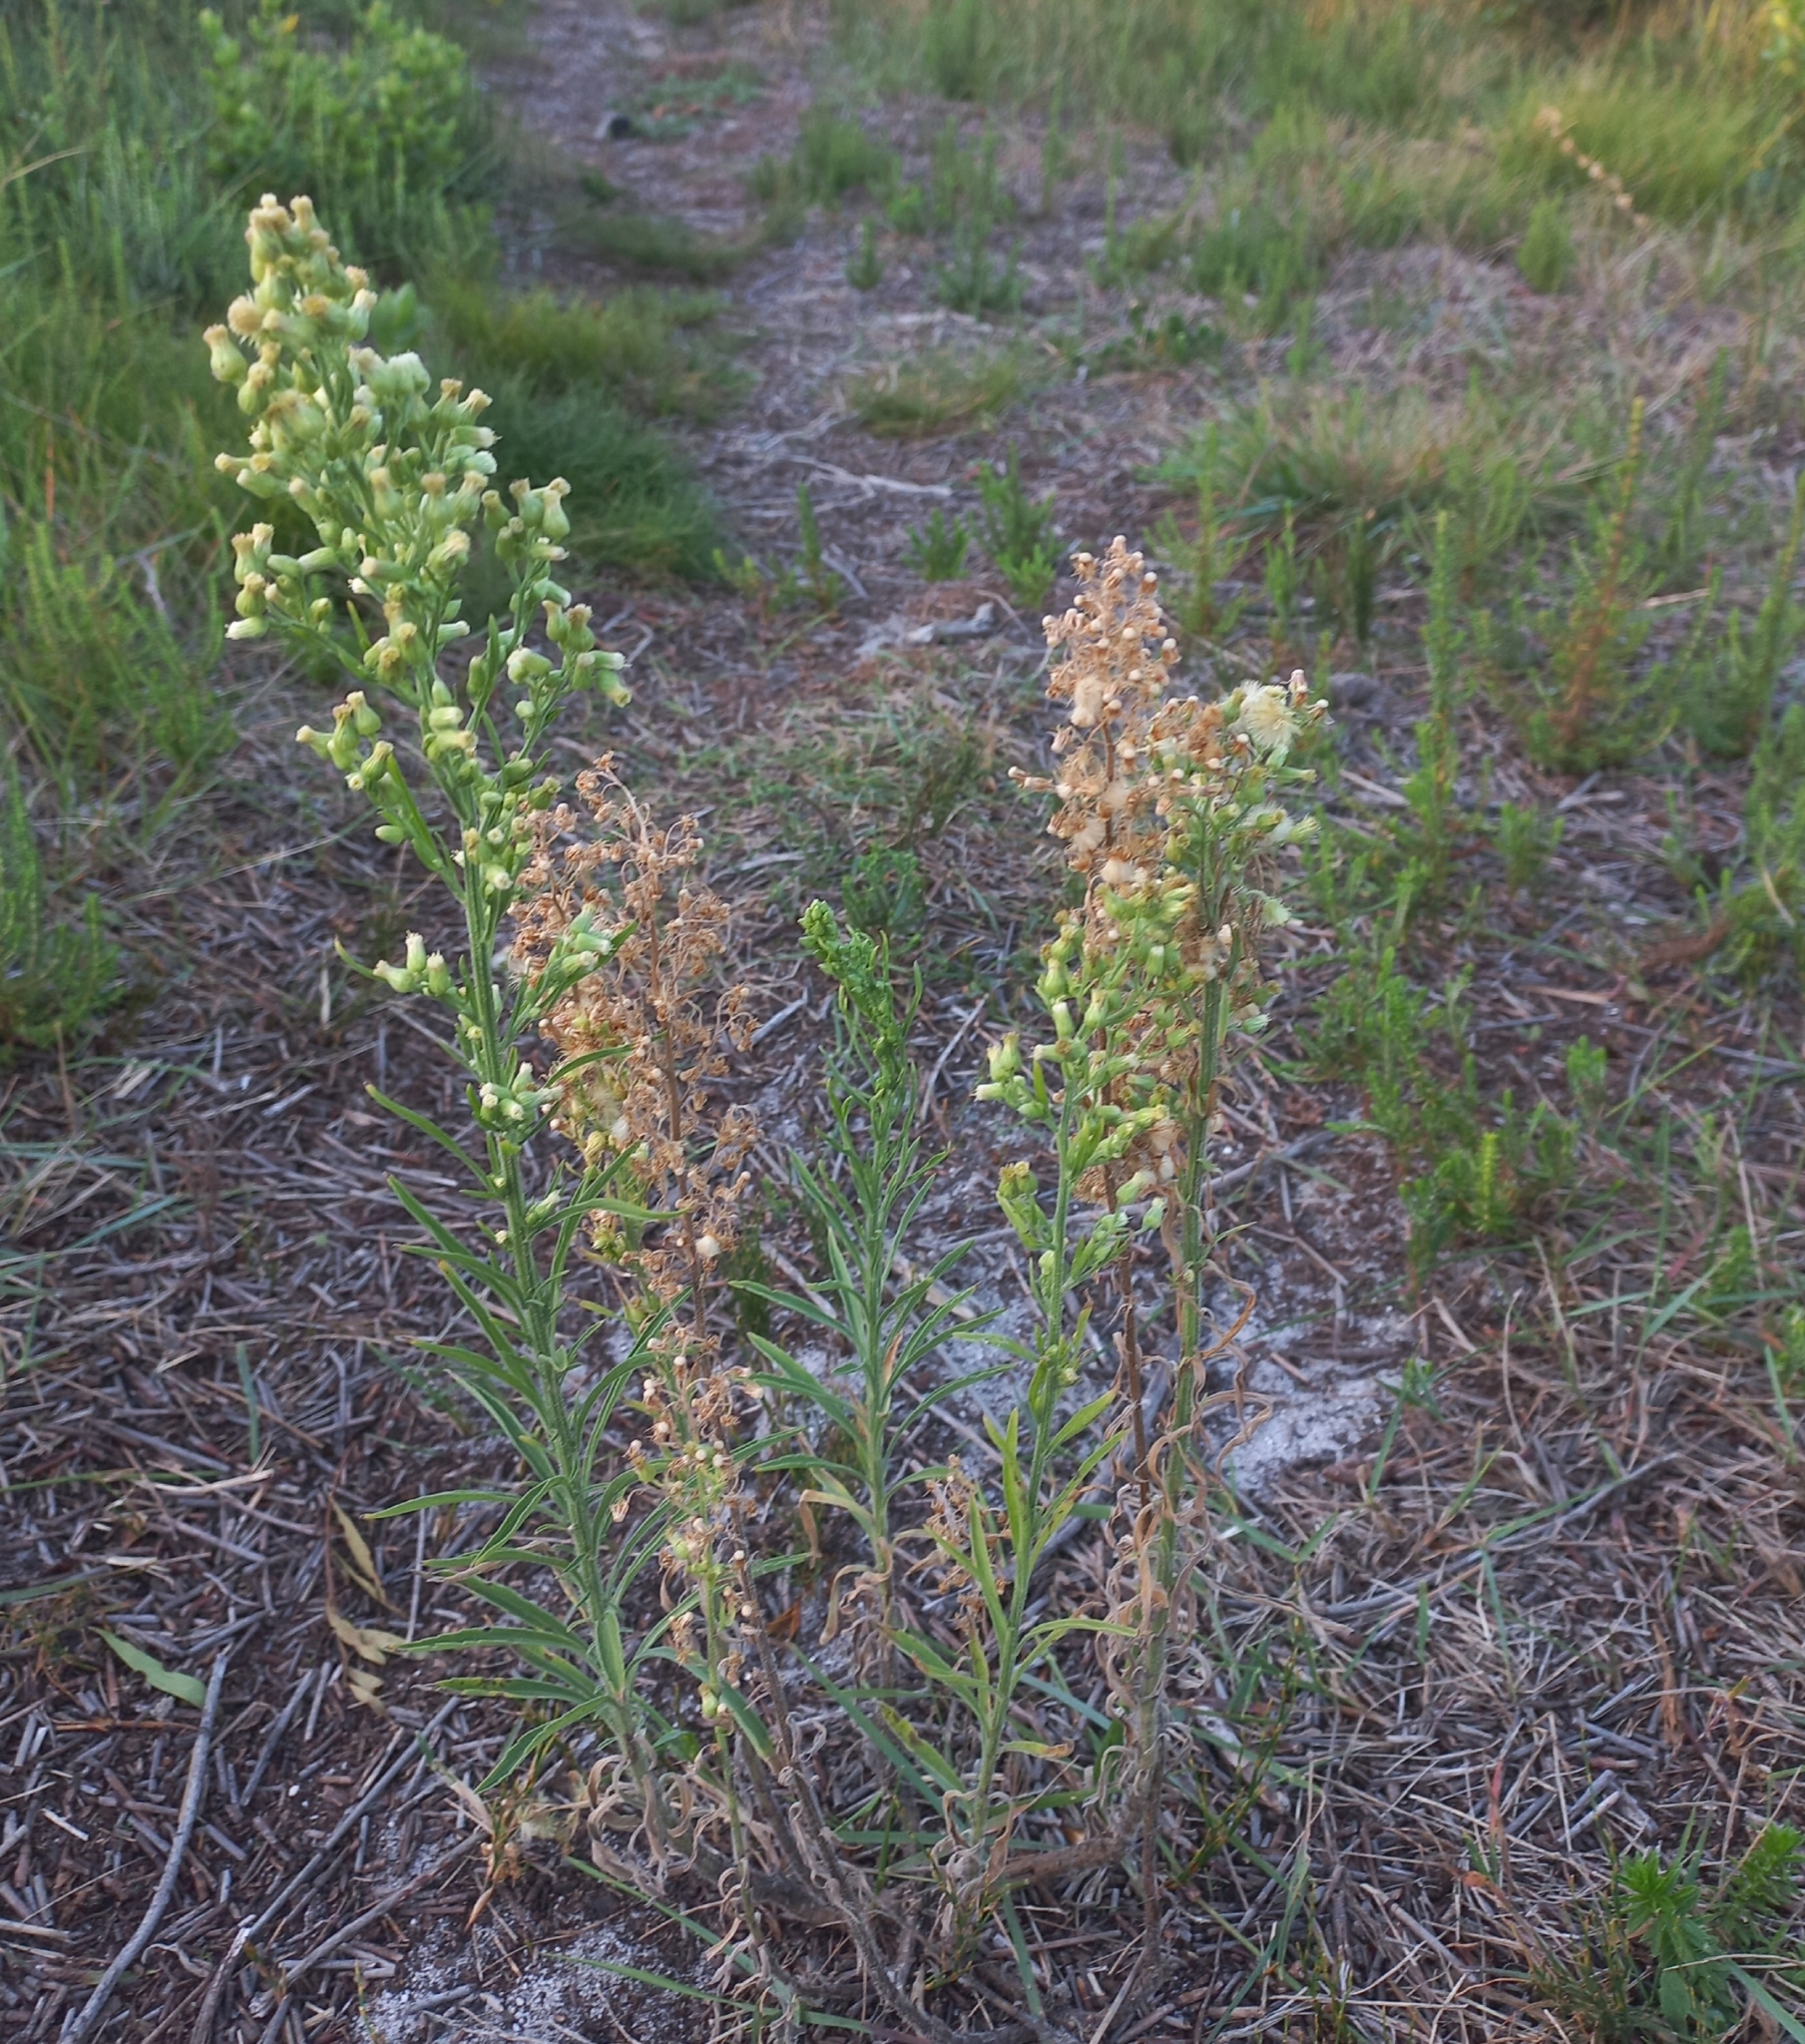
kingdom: Plantae
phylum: Tracheophyta
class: Magnoliopsida
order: Asterales
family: Asteraceae
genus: Erigeron
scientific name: Erigeron sumatrensis
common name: Daisy
